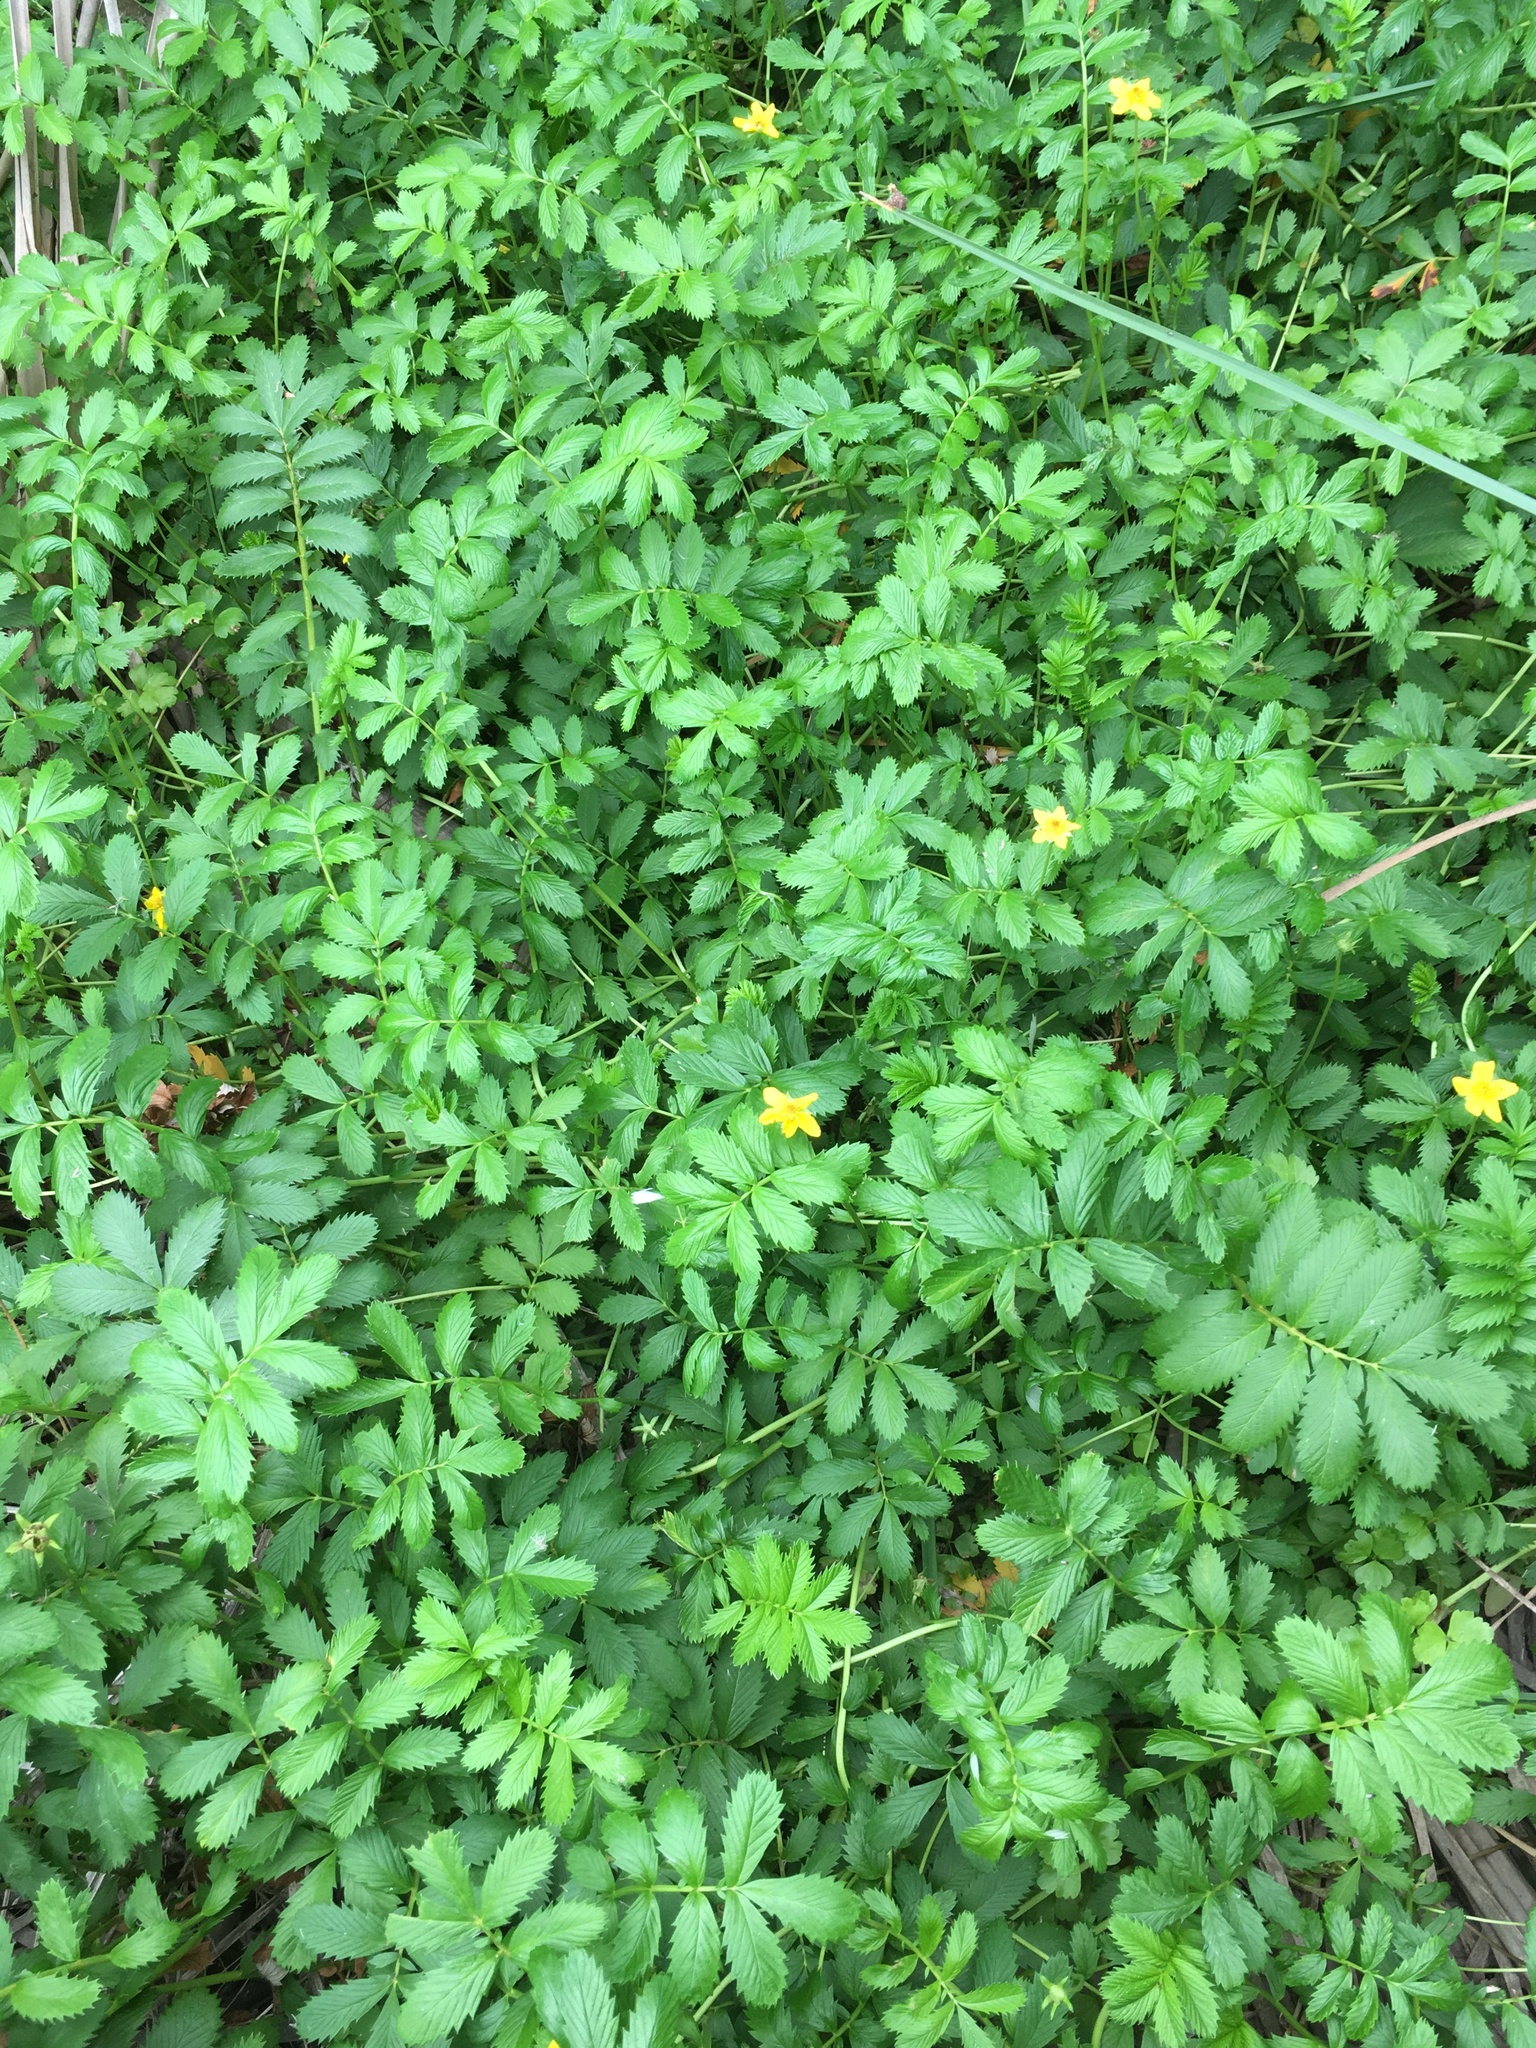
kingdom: Plantae
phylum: Tracheophyta
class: Magnoliopsida
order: Rosales
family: Rosaceae
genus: Argentina
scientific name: Argentina anserina
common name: Common silverweed
